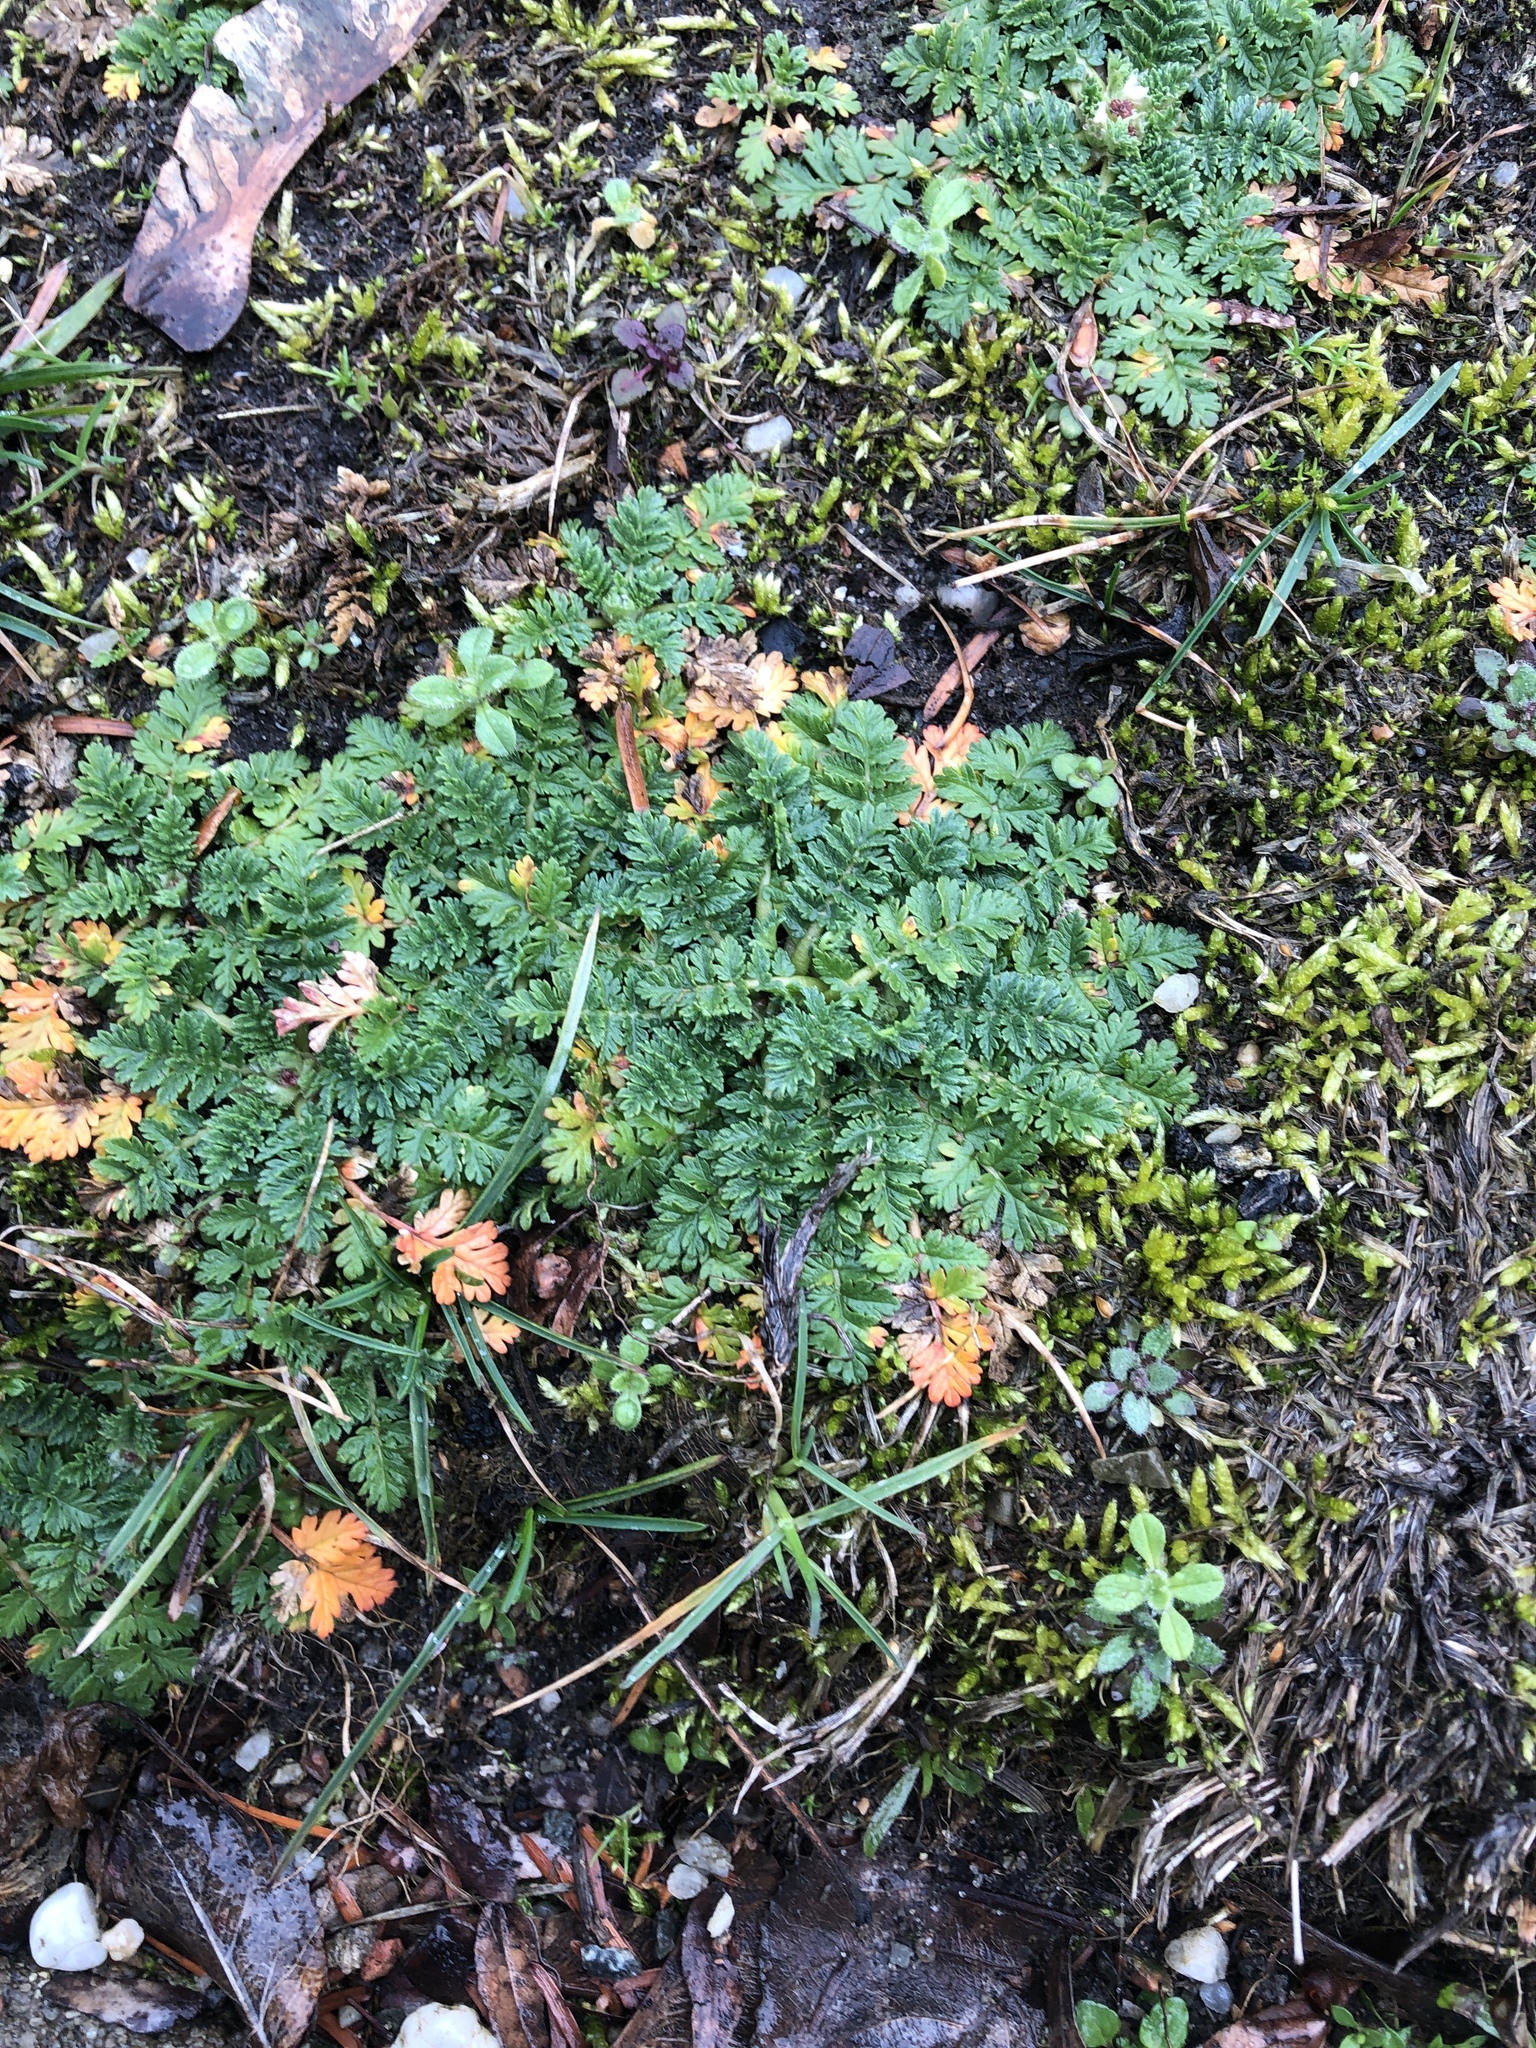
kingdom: Plantae
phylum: Tracheophyta
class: Magnoliopsida
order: Geraniales
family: Geraniaceae
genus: Erodium
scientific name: Erodium cicutarium
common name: Common stork's-bill
